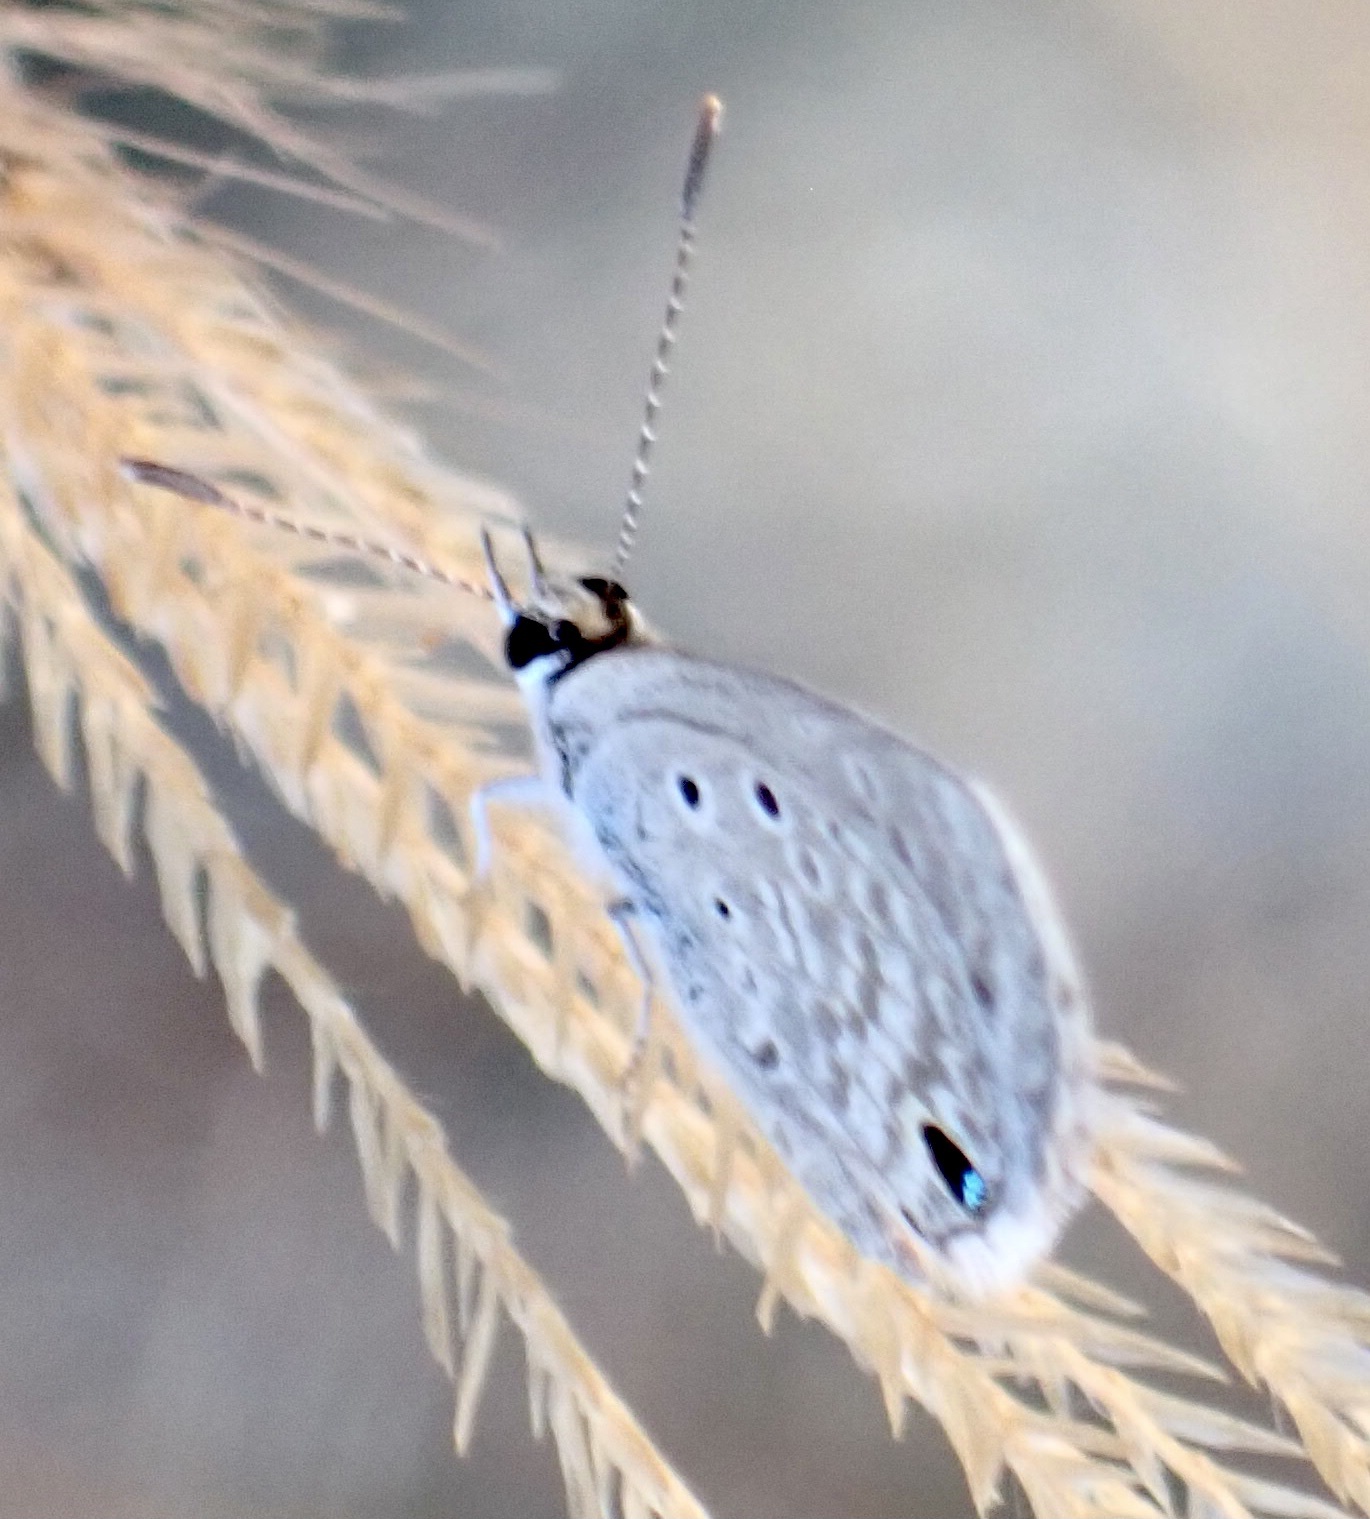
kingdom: Animalia
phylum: Arthropoda
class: Insecta
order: Lepidoptera
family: Lycaenidae
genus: Hemiargus
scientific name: Hemiargus hanno
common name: Common blue
